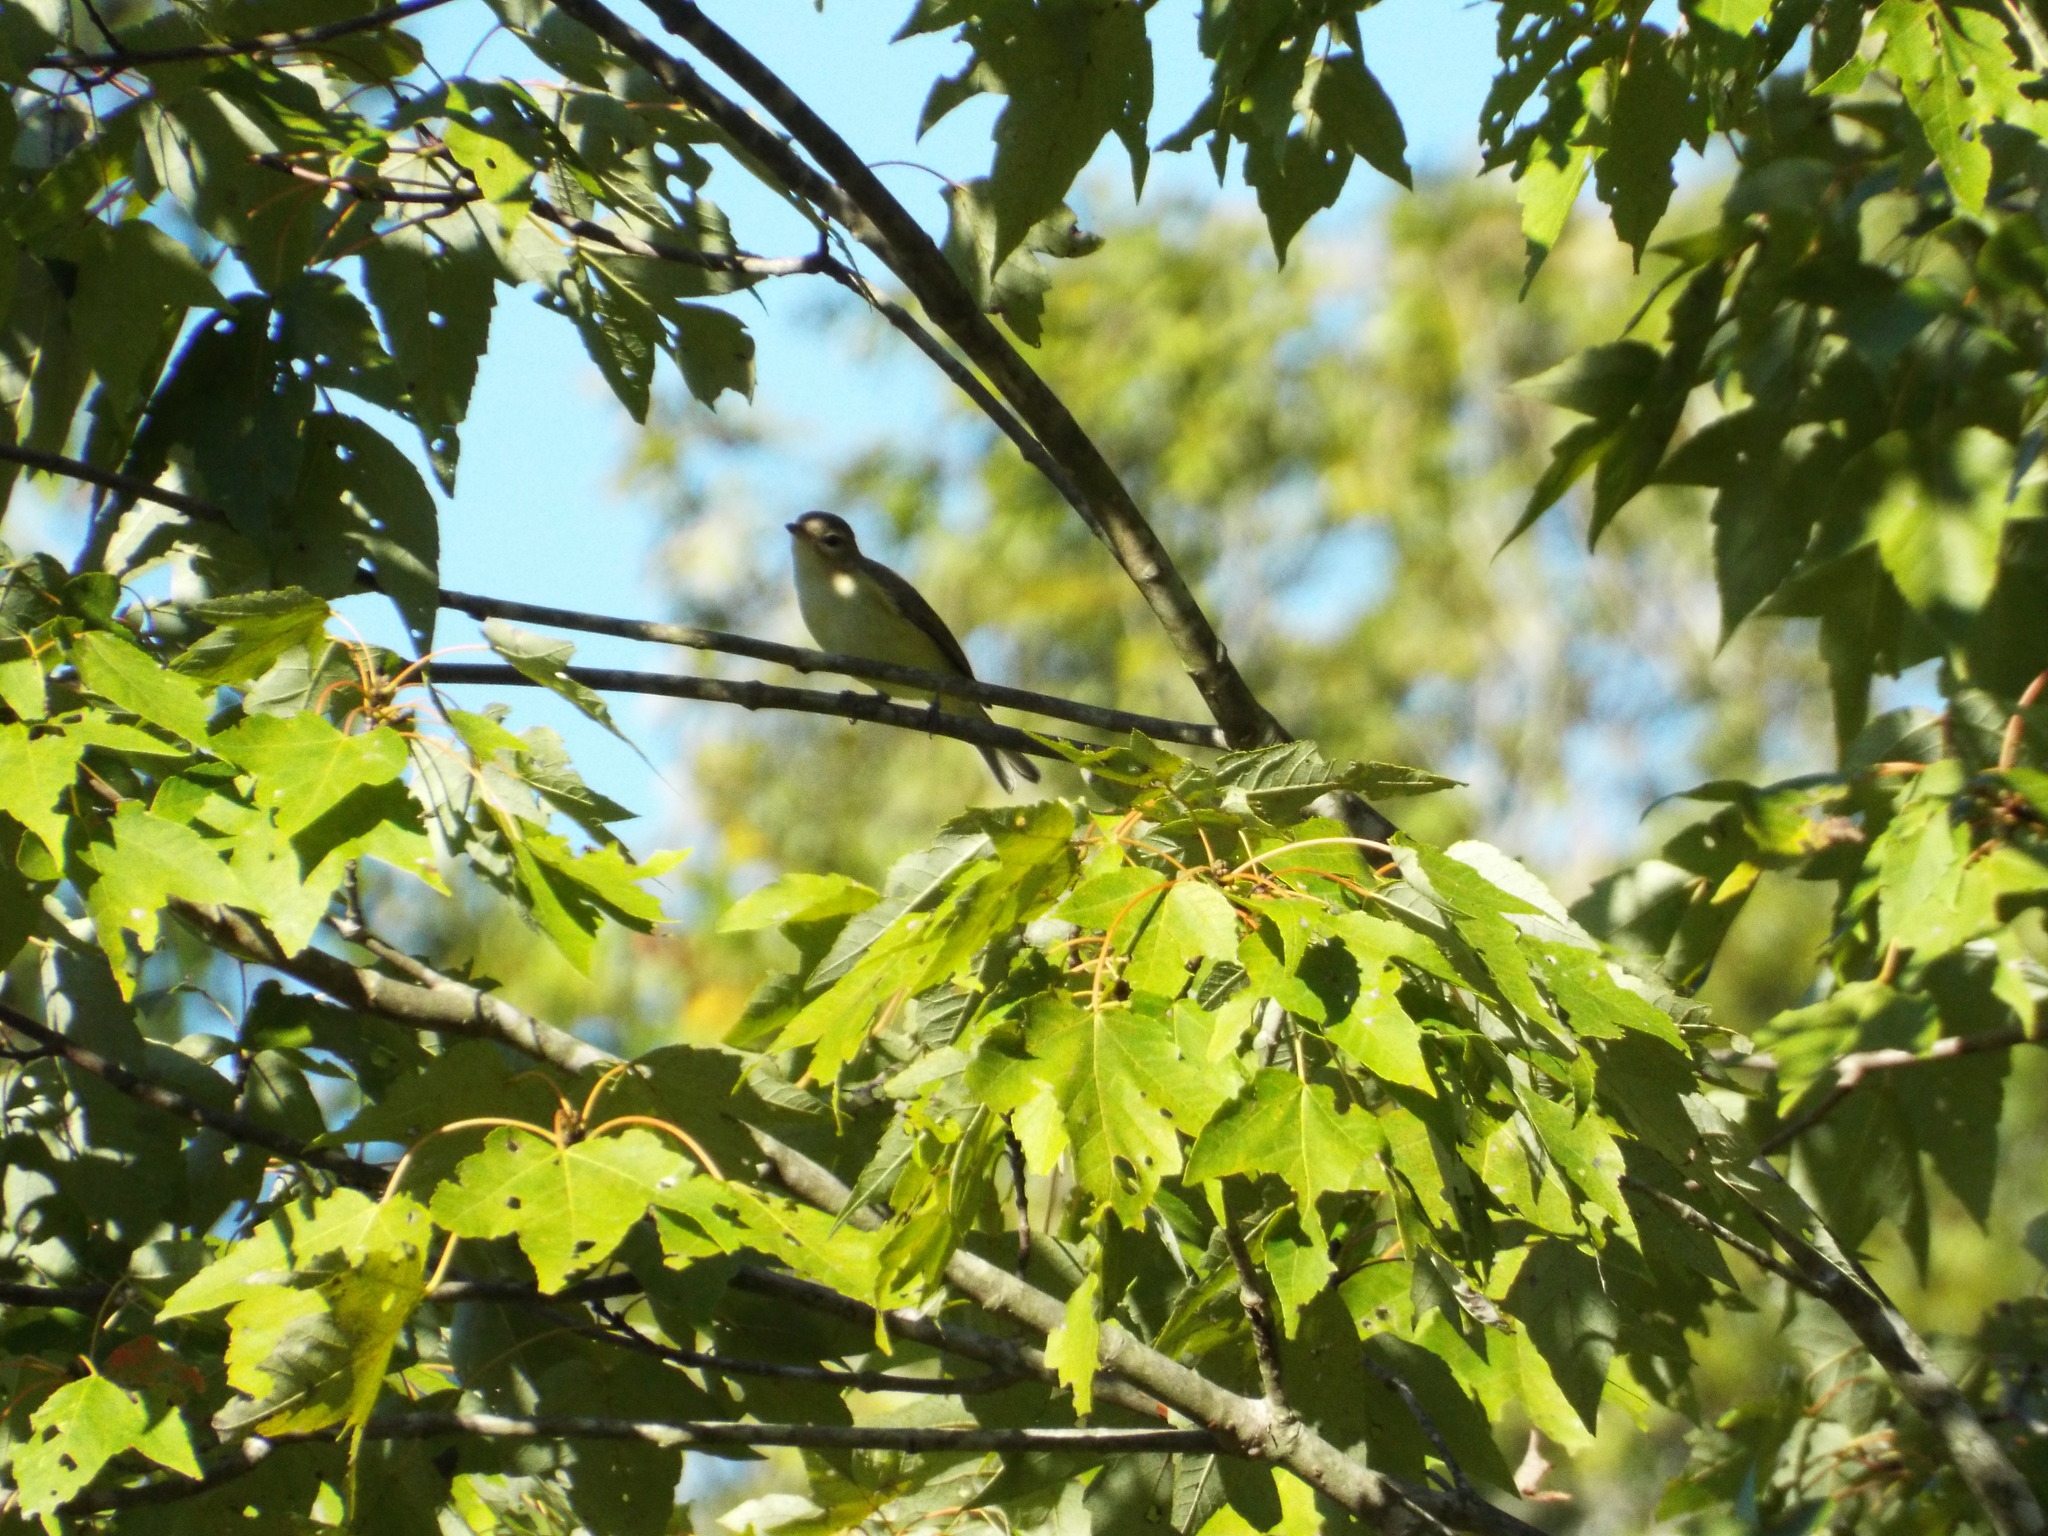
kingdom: Animalia
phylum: Chordata
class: Aves
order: Passeriformes
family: Vireonidae
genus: Vireo
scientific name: Vireo gilvus
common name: Warbling vireo
